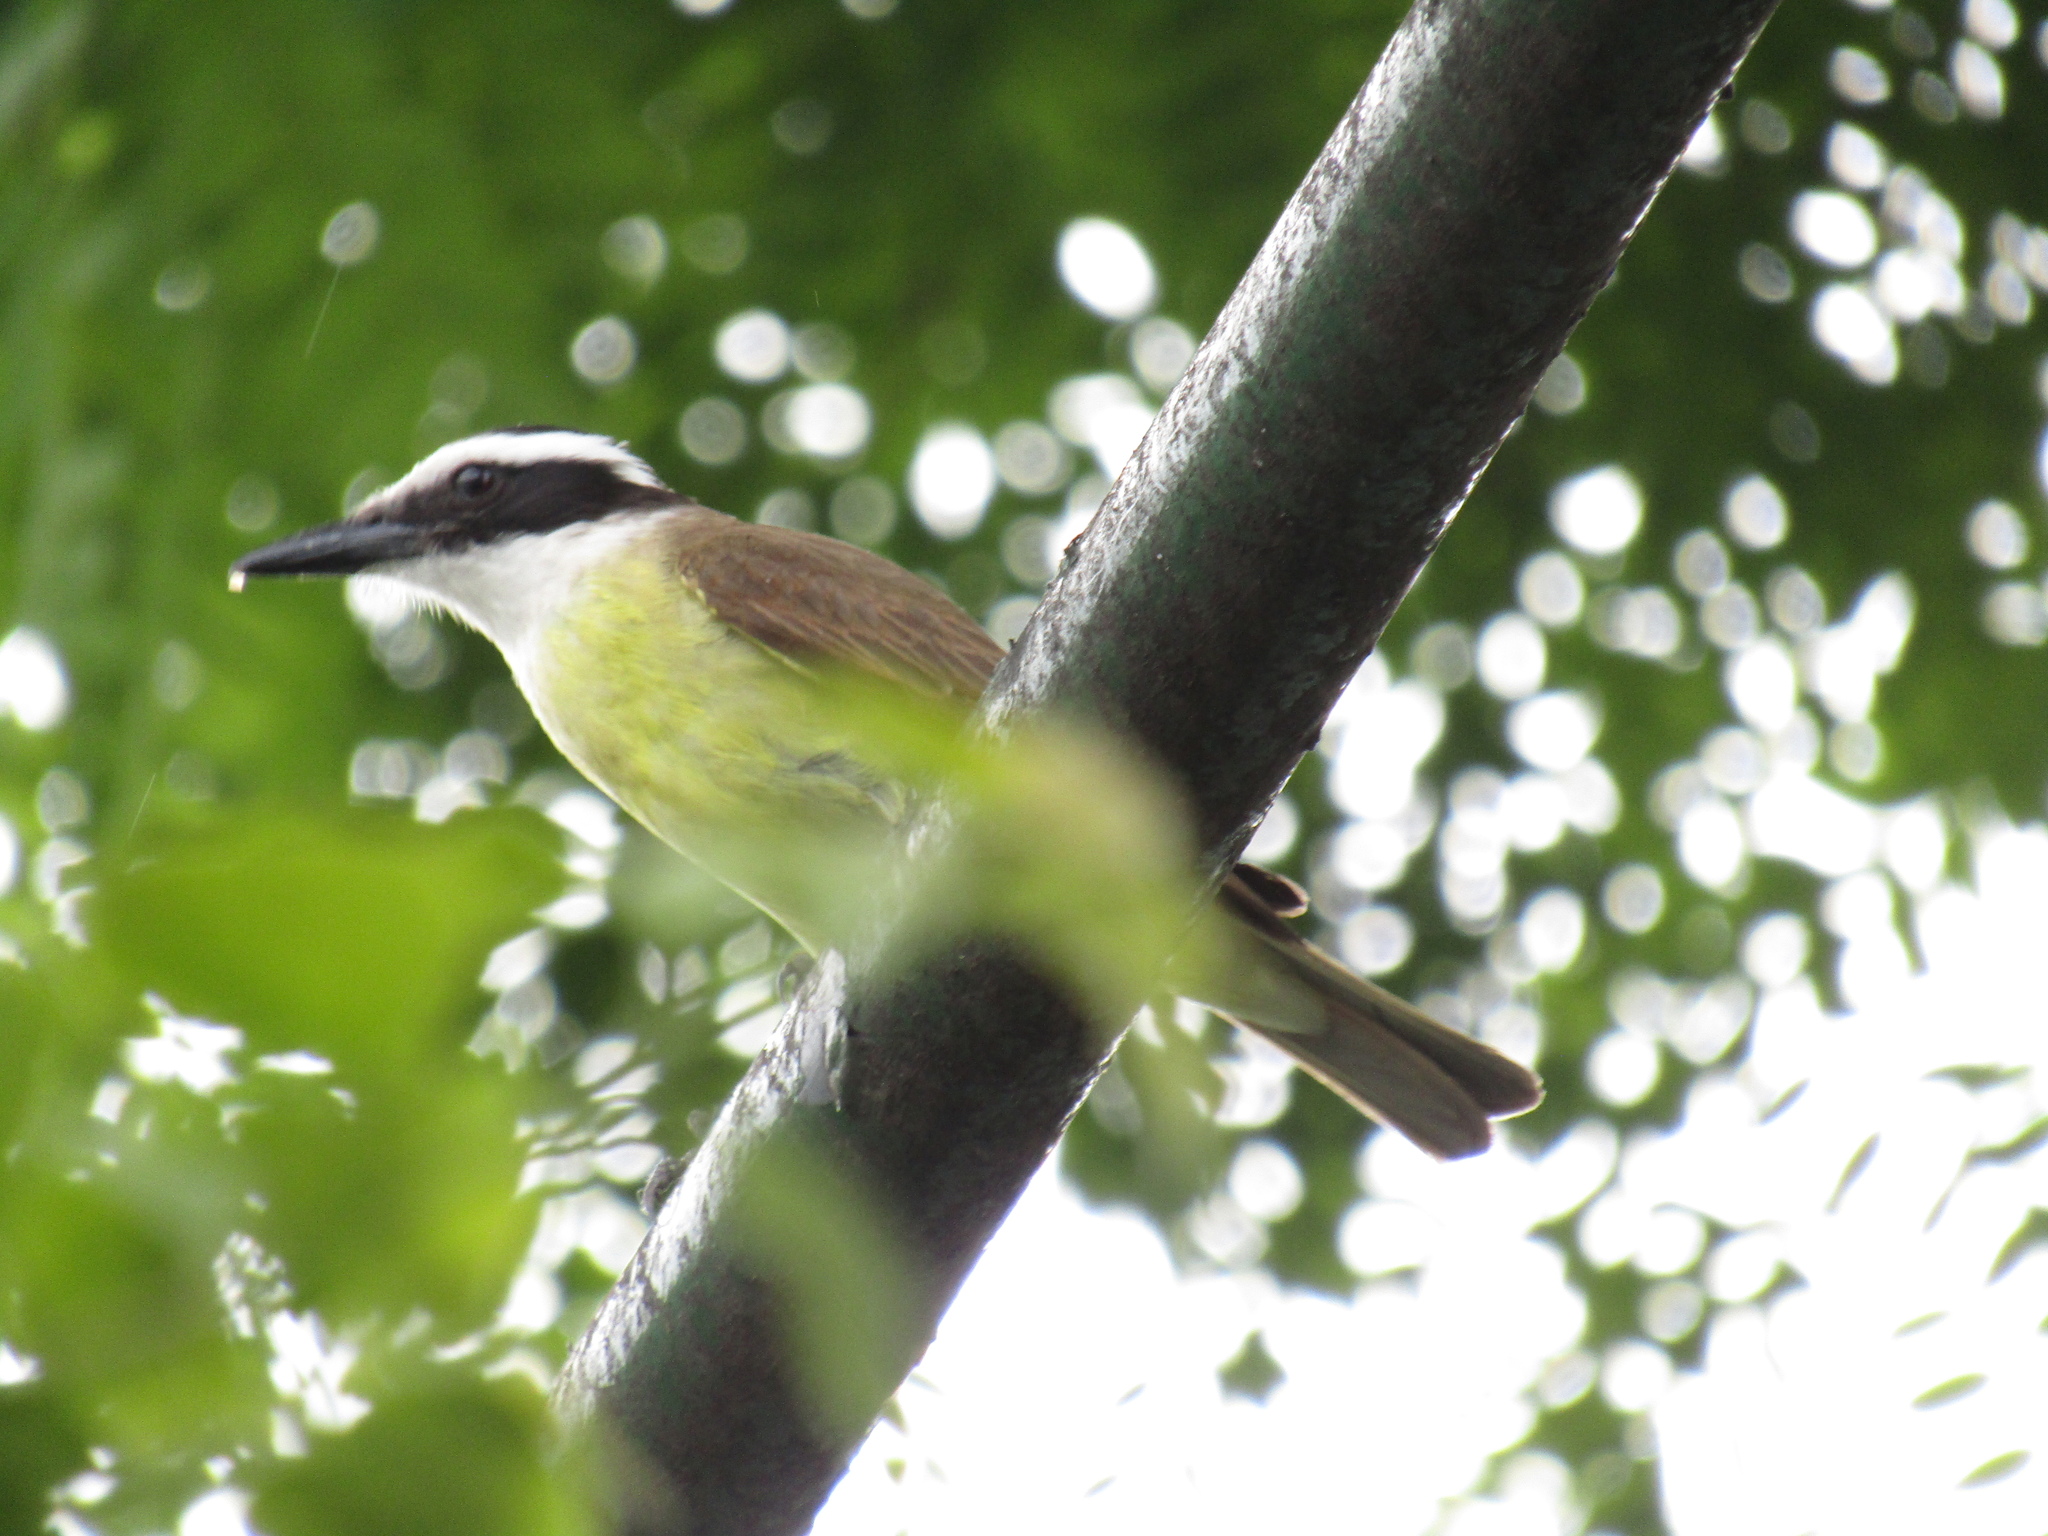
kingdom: Animalia
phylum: Chordata
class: Aves
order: Passeriformes
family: Tyrannidae
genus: Pitangus
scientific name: Pitangus sulphuratus
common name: Great kiskadee
